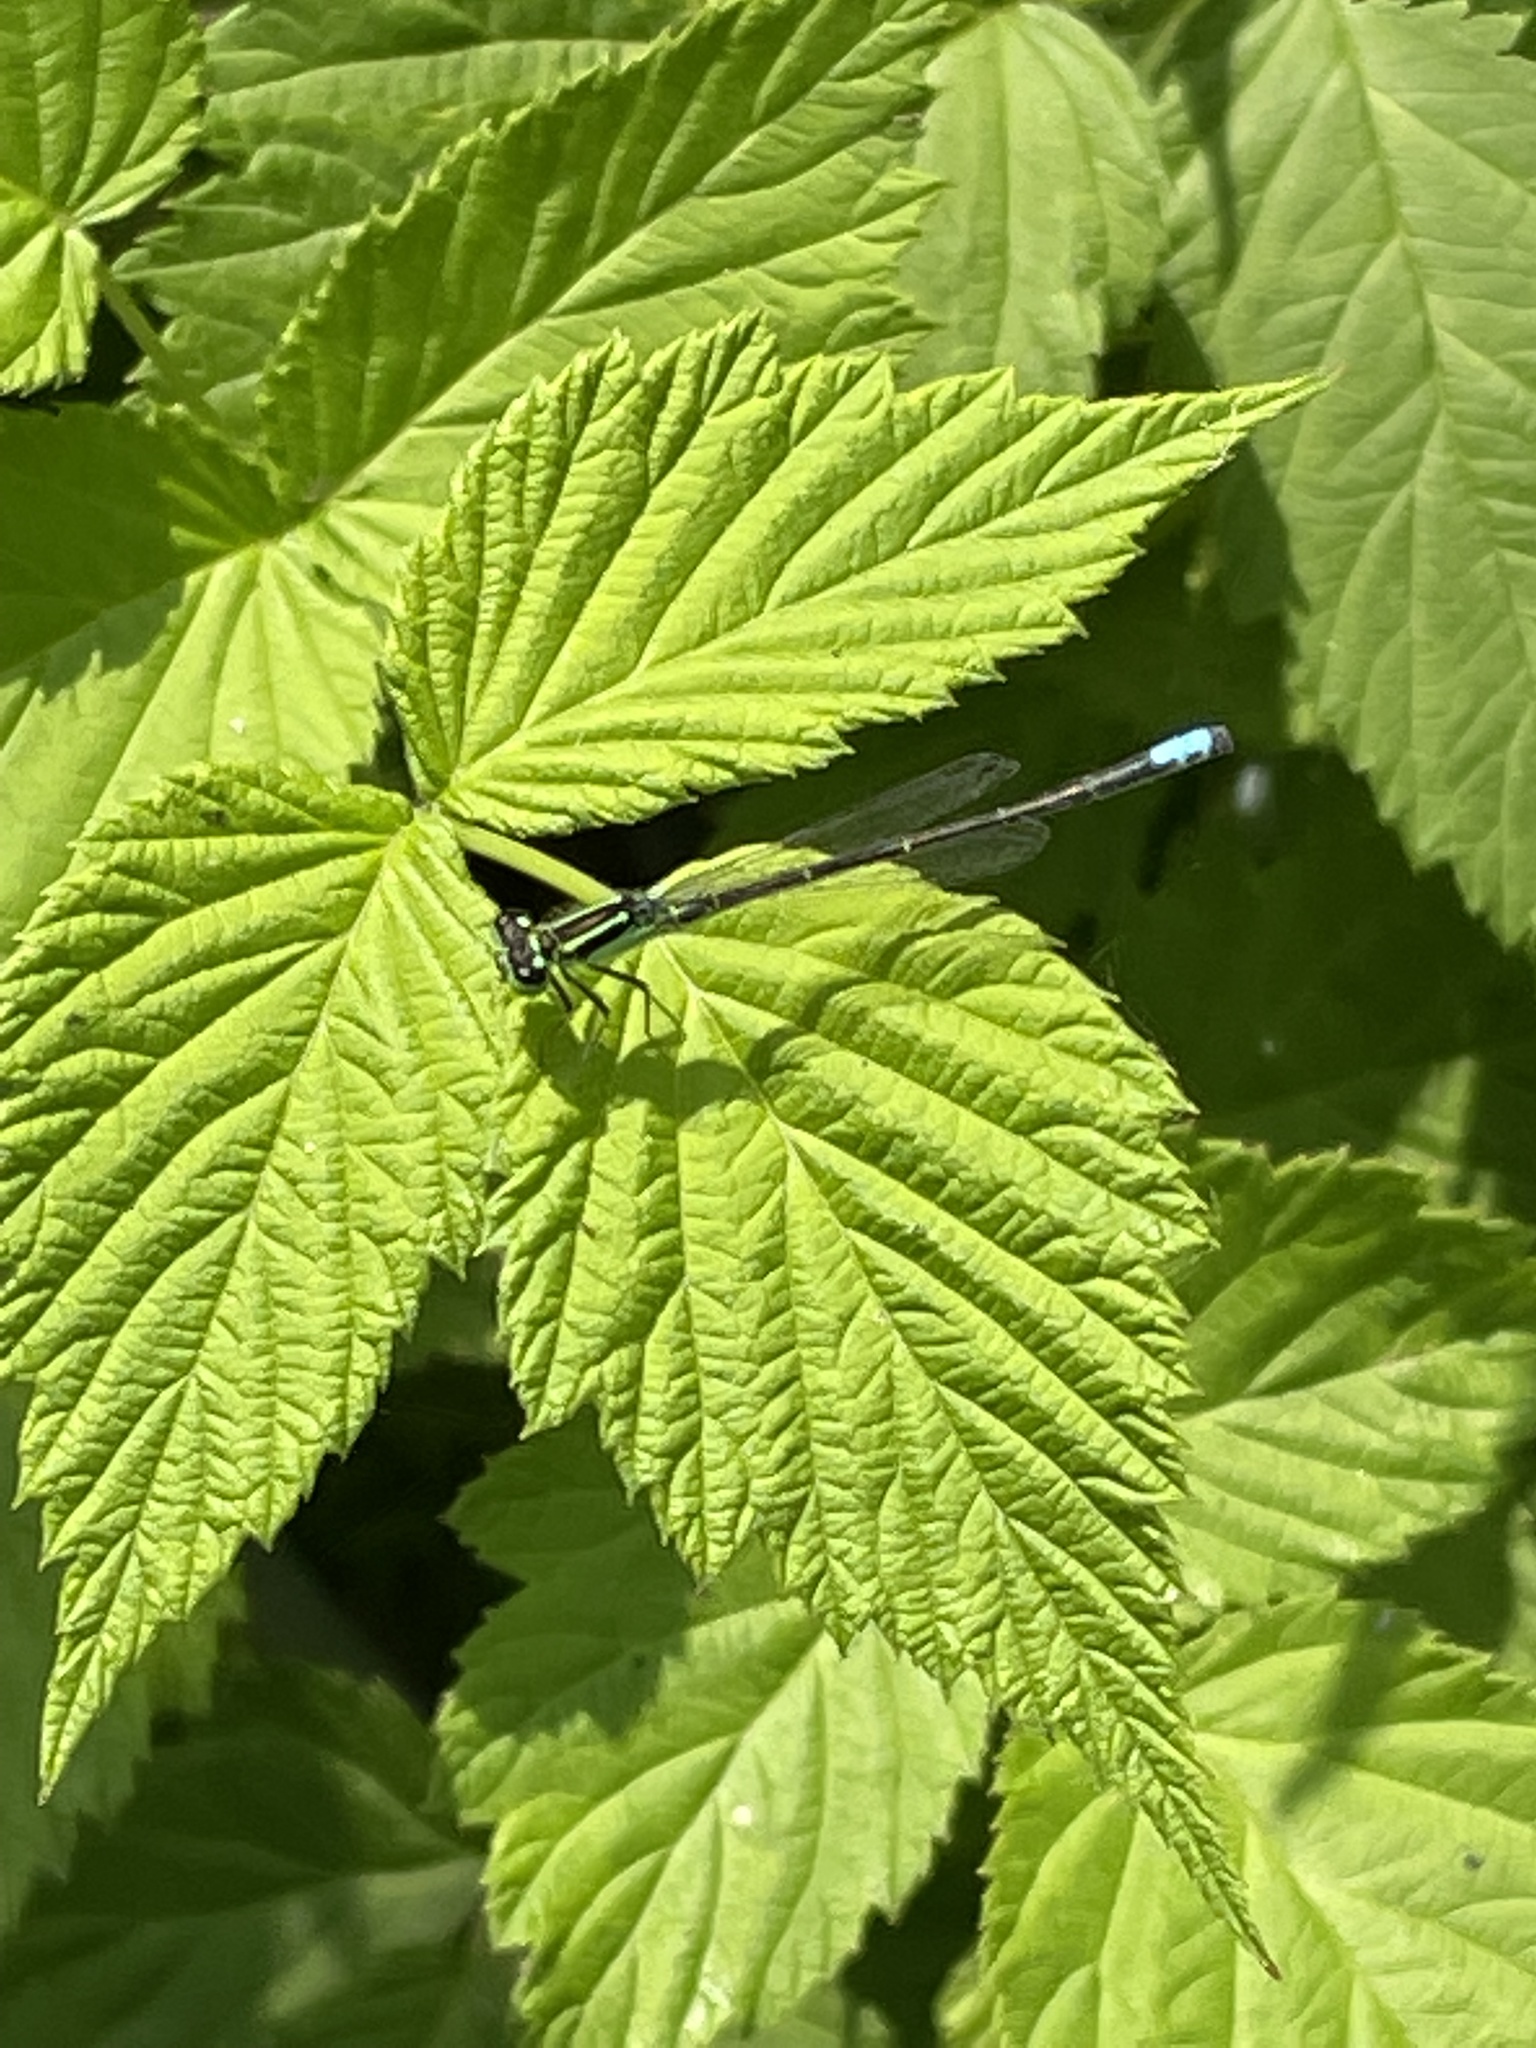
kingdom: Animalia
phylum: Arthropoda
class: Insecta
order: Odonata
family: Coenagrionidae
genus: Ischnura
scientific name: Ischnura verticalis
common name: Eastern forktail
